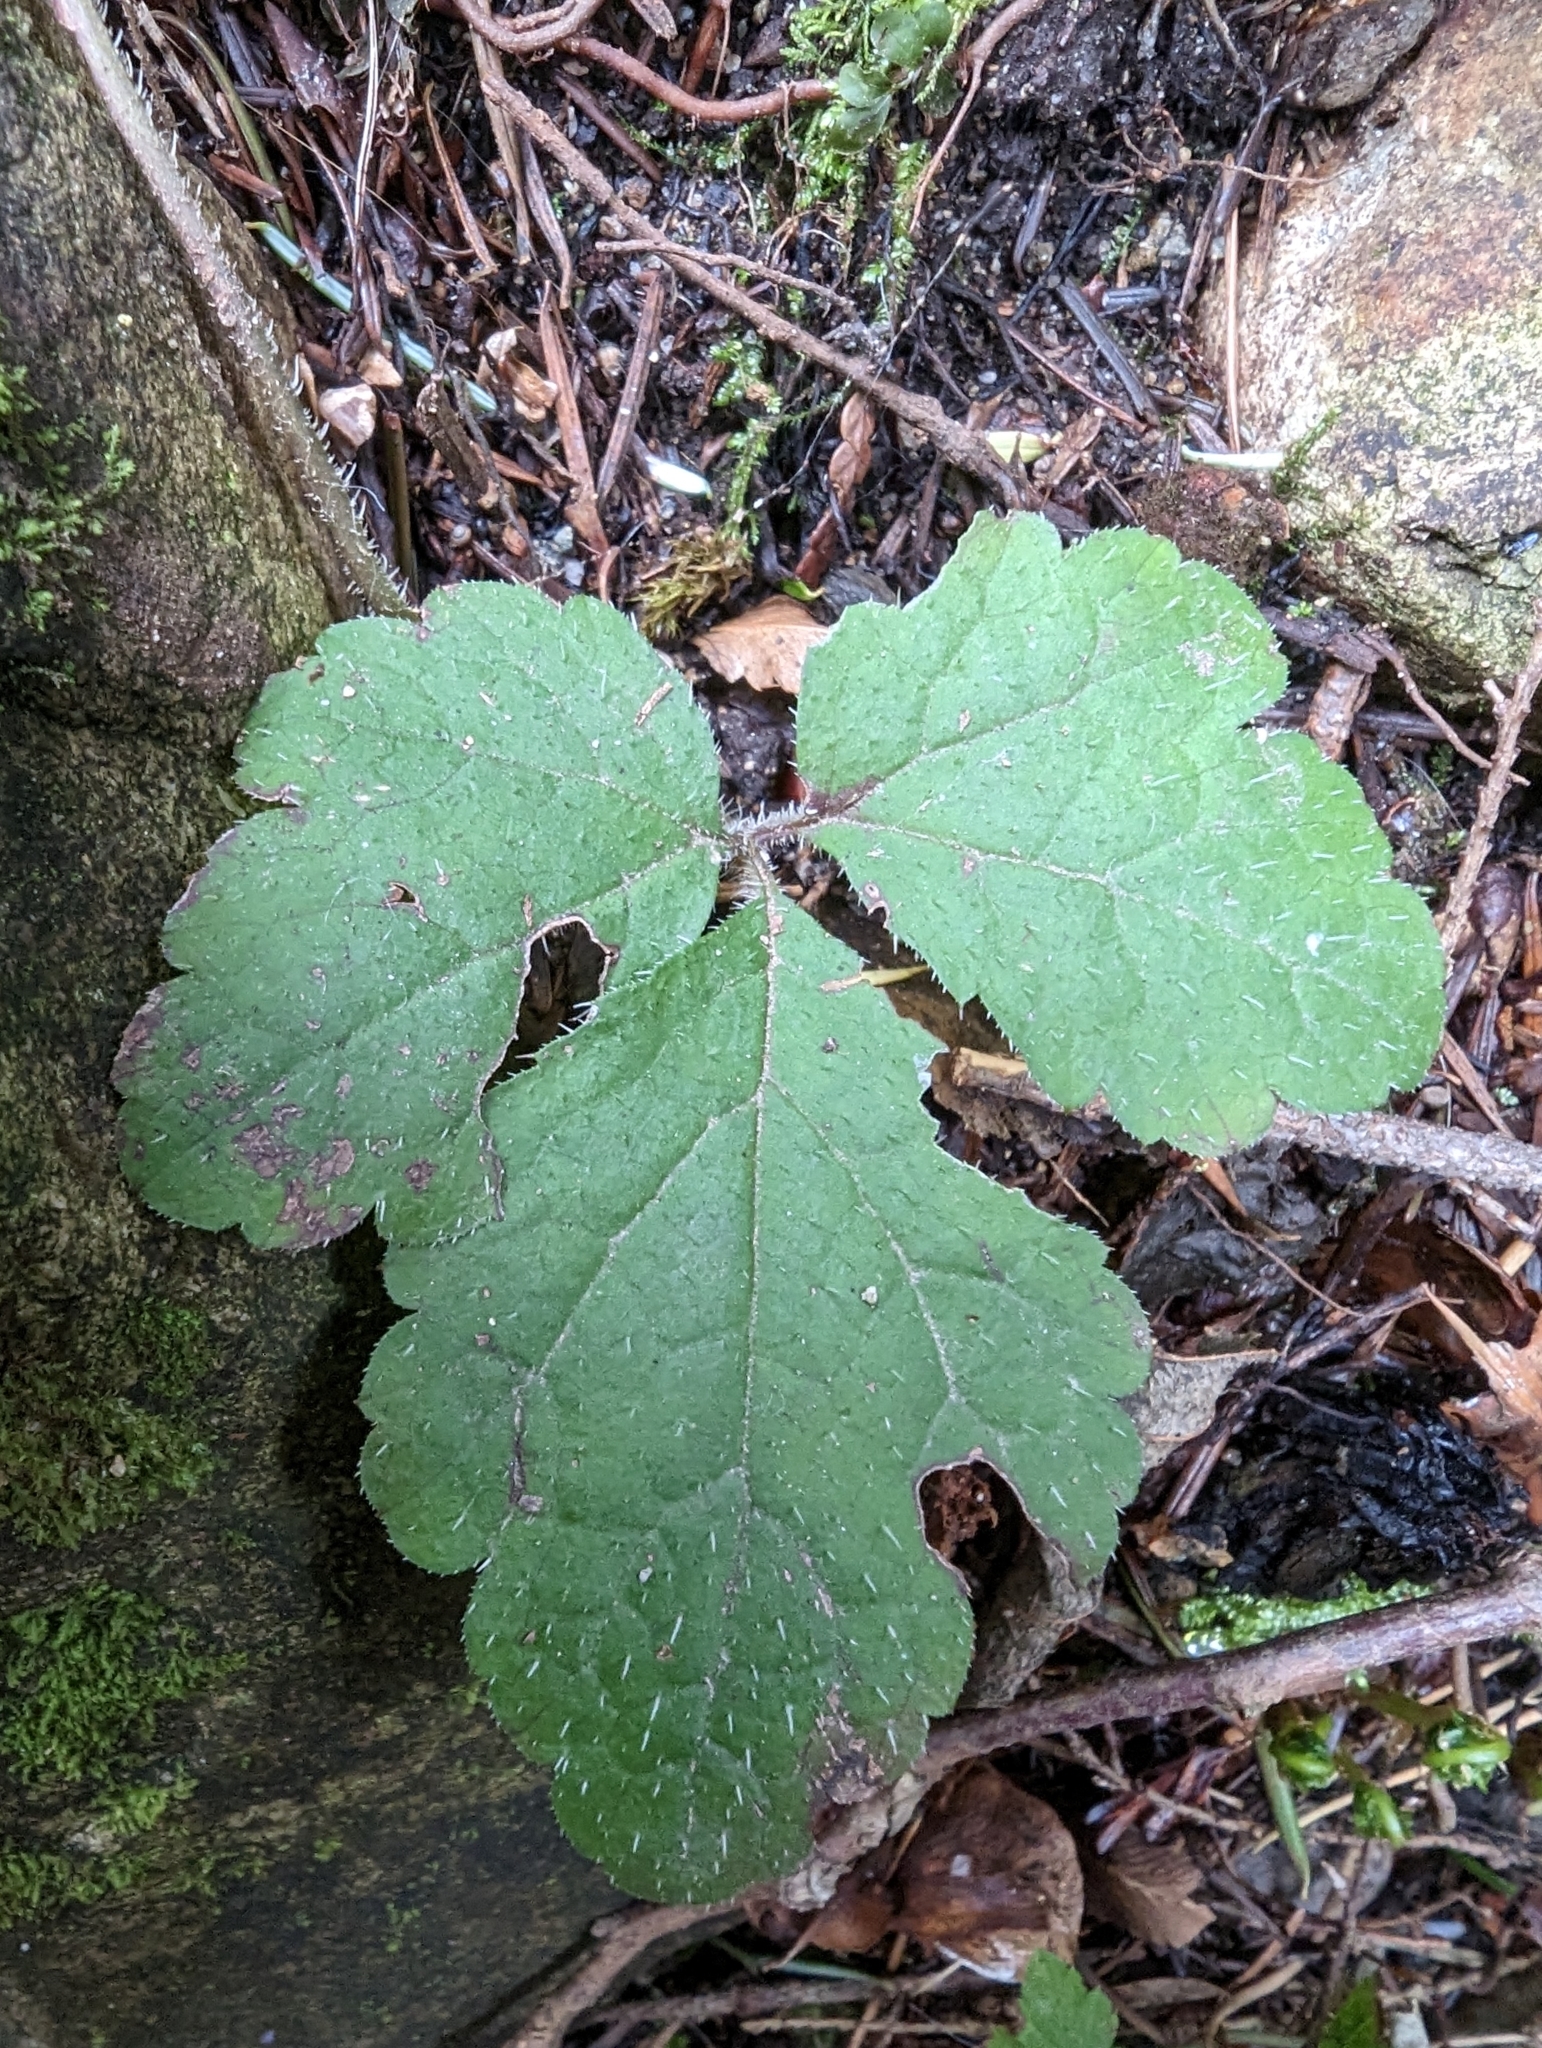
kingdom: Plantae
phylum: Tracheophyta
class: Magnoliopsida
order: Saxifragales
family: Saxifragaceae
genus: Tiarella
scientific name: Tiarella trifoliata
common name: Sugar-scoop
